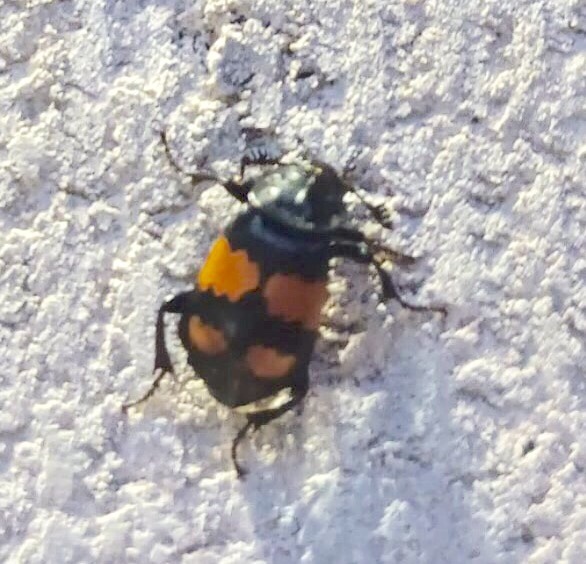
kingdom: Animalia
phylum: Arthropoda
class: Insecta
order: Coleoptera
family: Staphylinidae
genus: Nicrophorus
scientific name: Nicrophorus vespilloides
